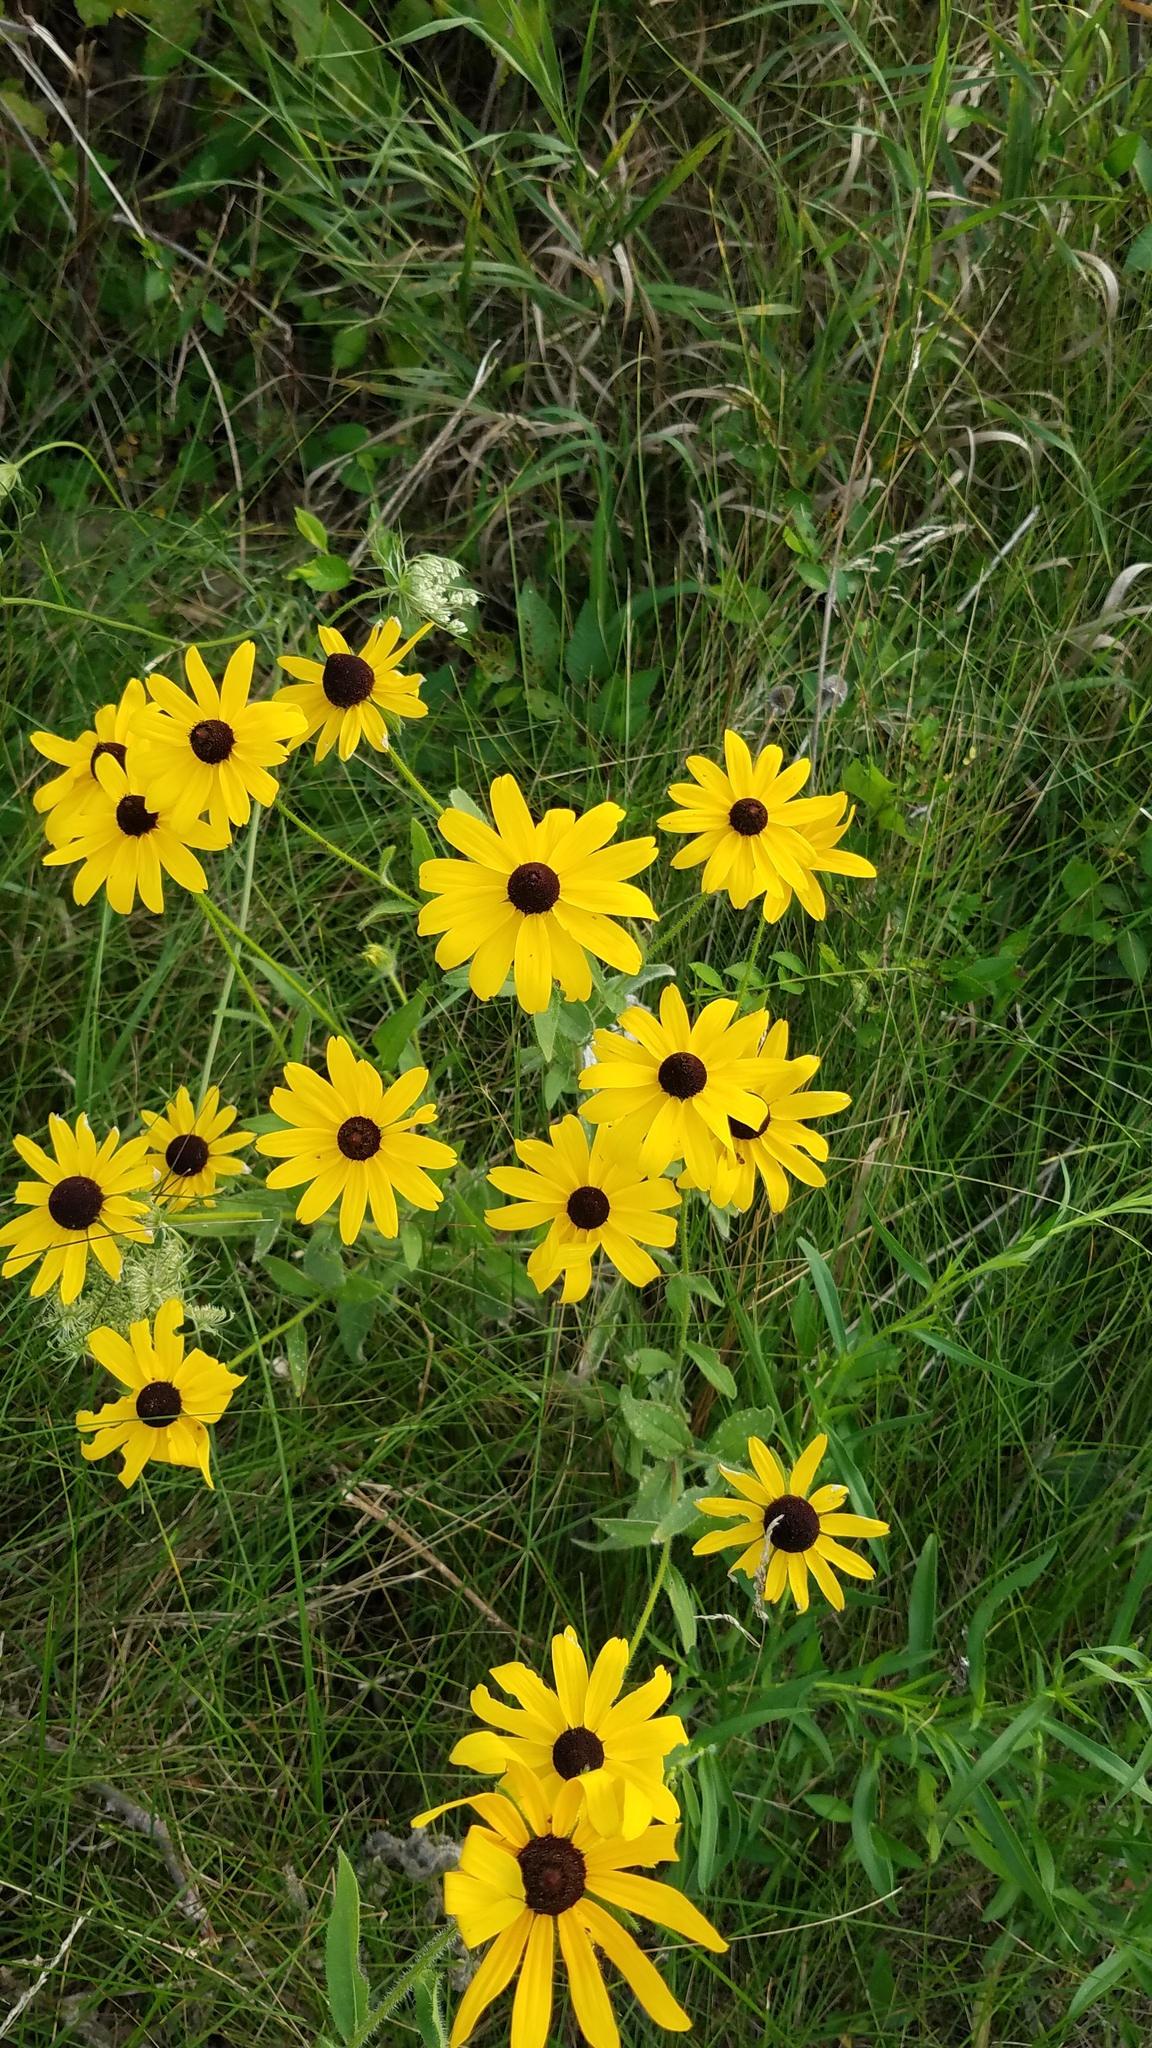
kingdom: Plantae
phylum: Tracheophyta
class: Magnoliopsida
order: Asterales
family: Asteraceae
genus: Rudbeckia
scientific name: Rudbeckia hirta
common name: Black-eyed-susan
